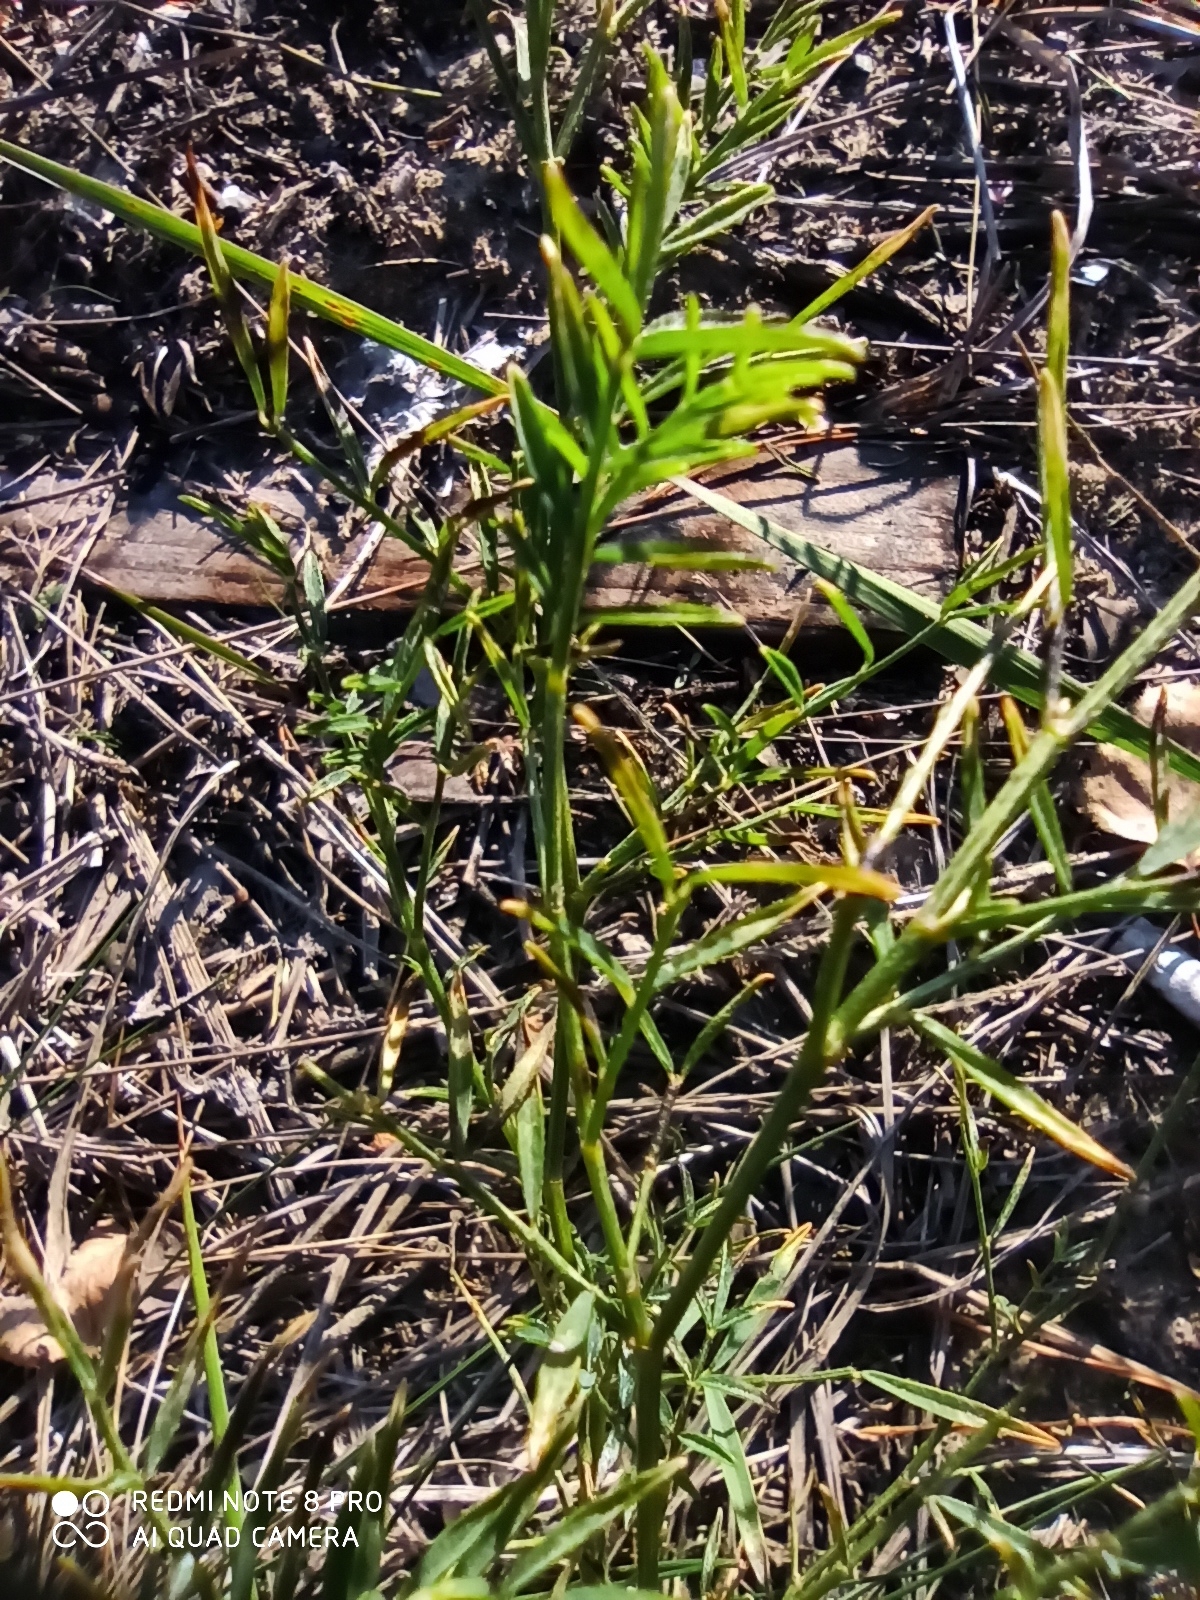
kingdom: Plantae
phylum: Tracheophyta
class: Magnoliopsida
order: Fabales
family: Fabaceae
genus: Astragalus
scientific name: Astragalus arenarius
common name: Arenarious milk-vetch
